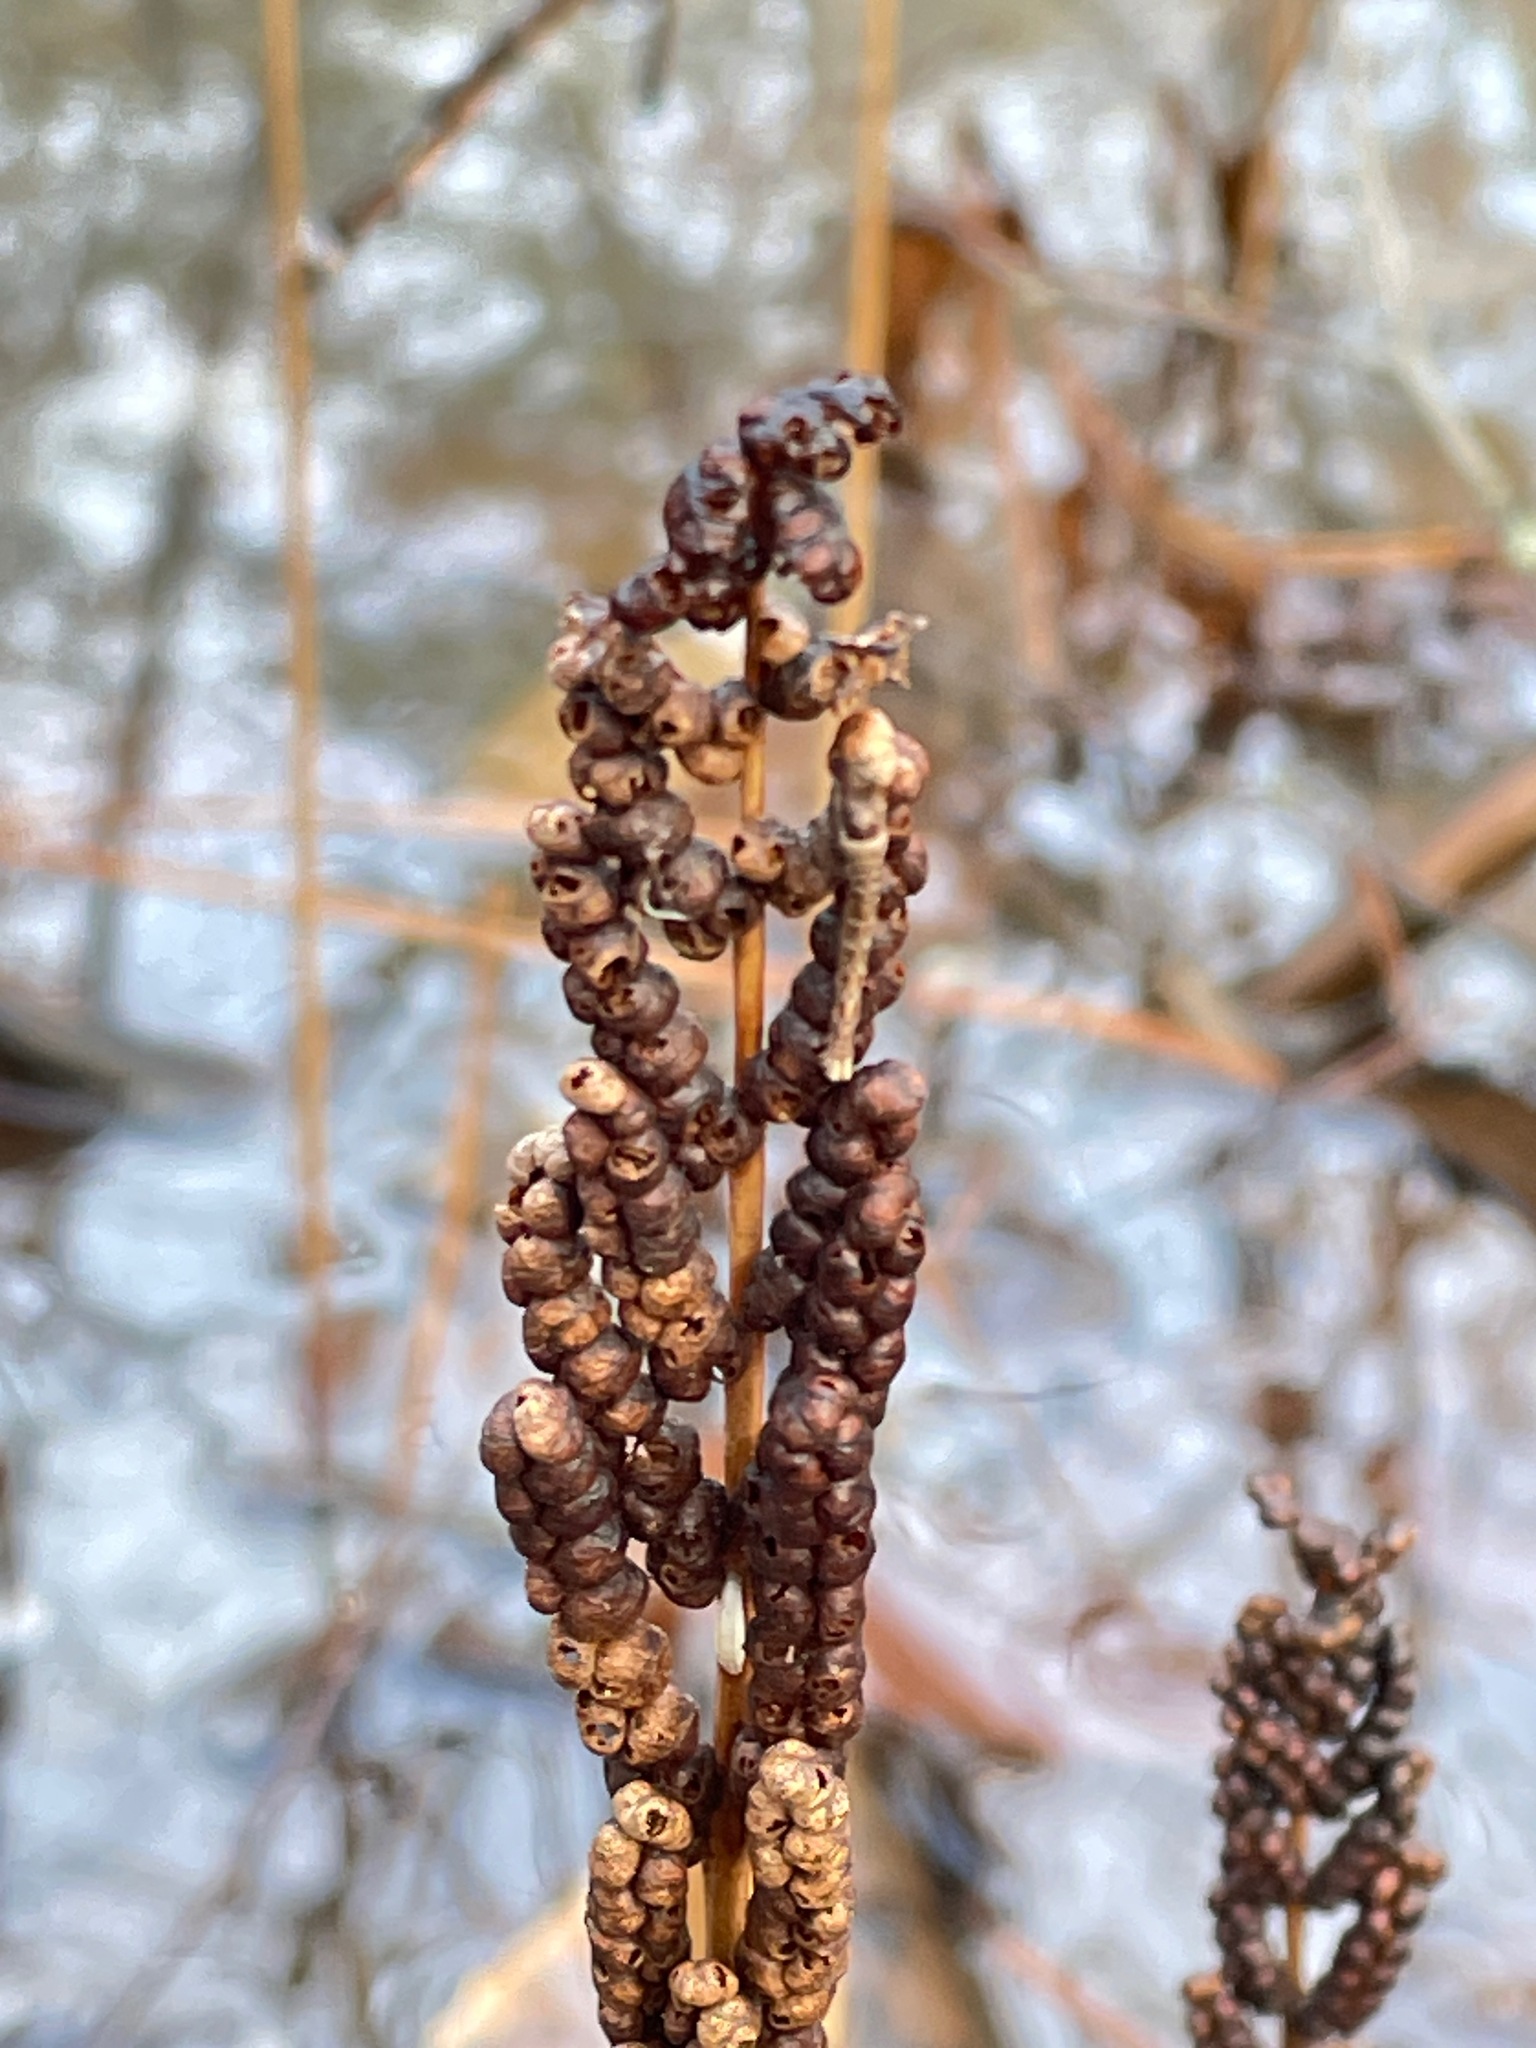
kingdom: Plantae
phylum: Tracheophyta
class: Polypodiopsida
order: Polypodiales
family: Onocleaceae
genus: Onoclea
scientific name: Onoclea sensibilis
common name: Sensitive fern
